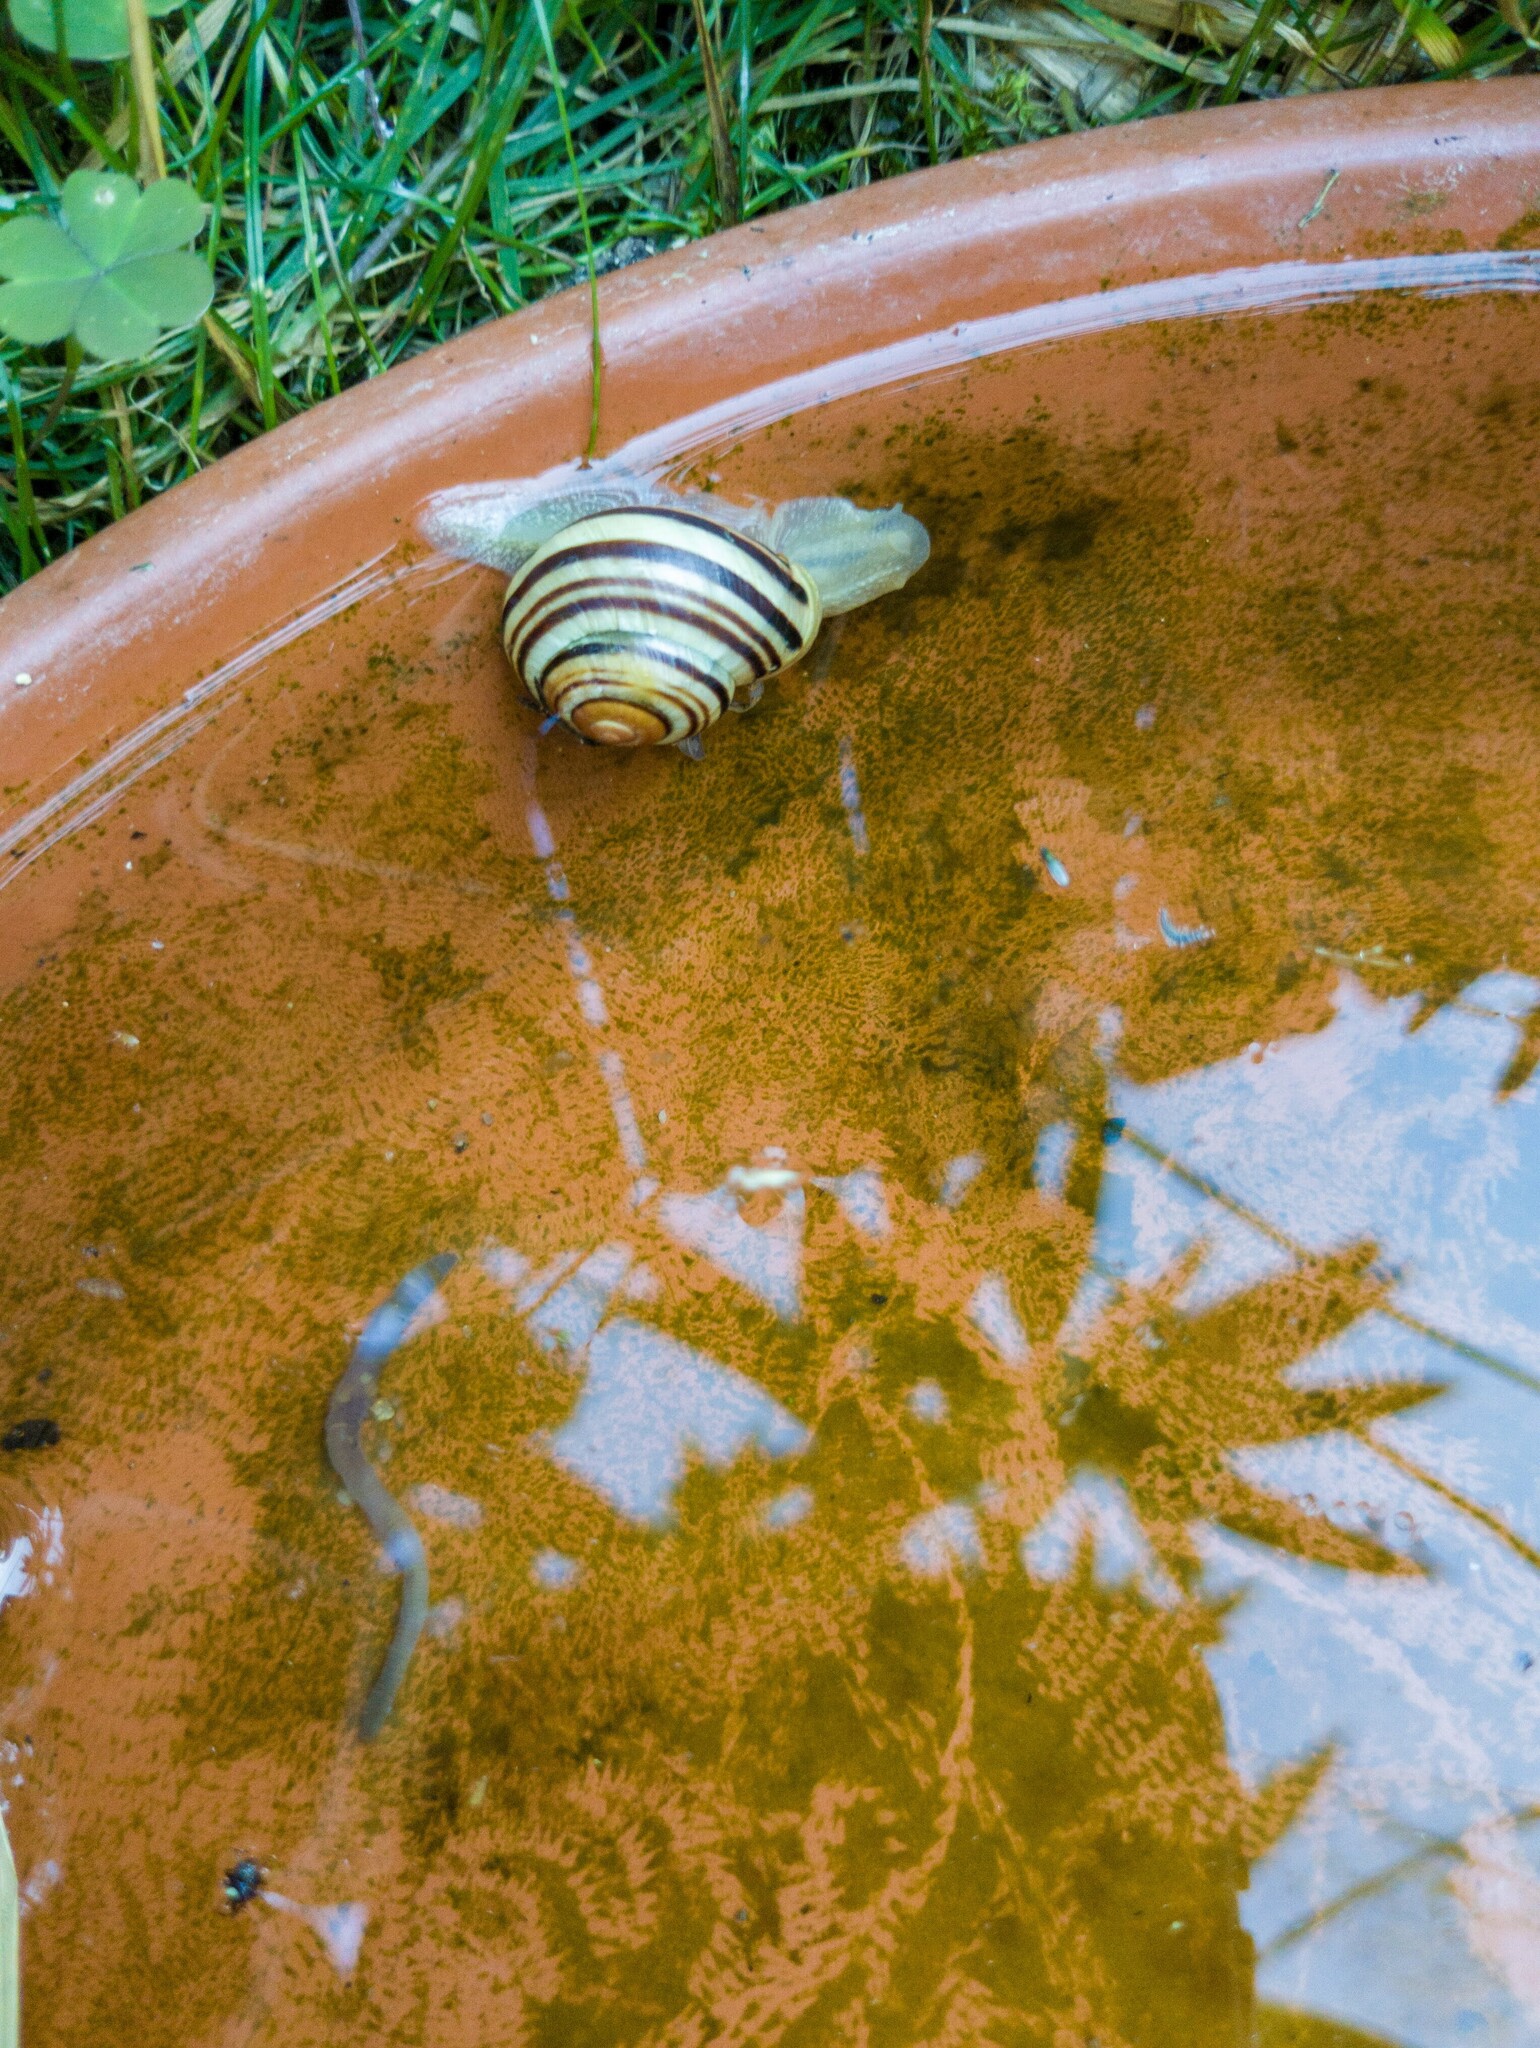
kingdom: Animalia
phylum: Mollusca
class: Gastropoda
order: Stylommatophora
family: Helicidae
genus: Cepaea
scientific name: Cepaea hortensis
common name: White-lip gardensnail
